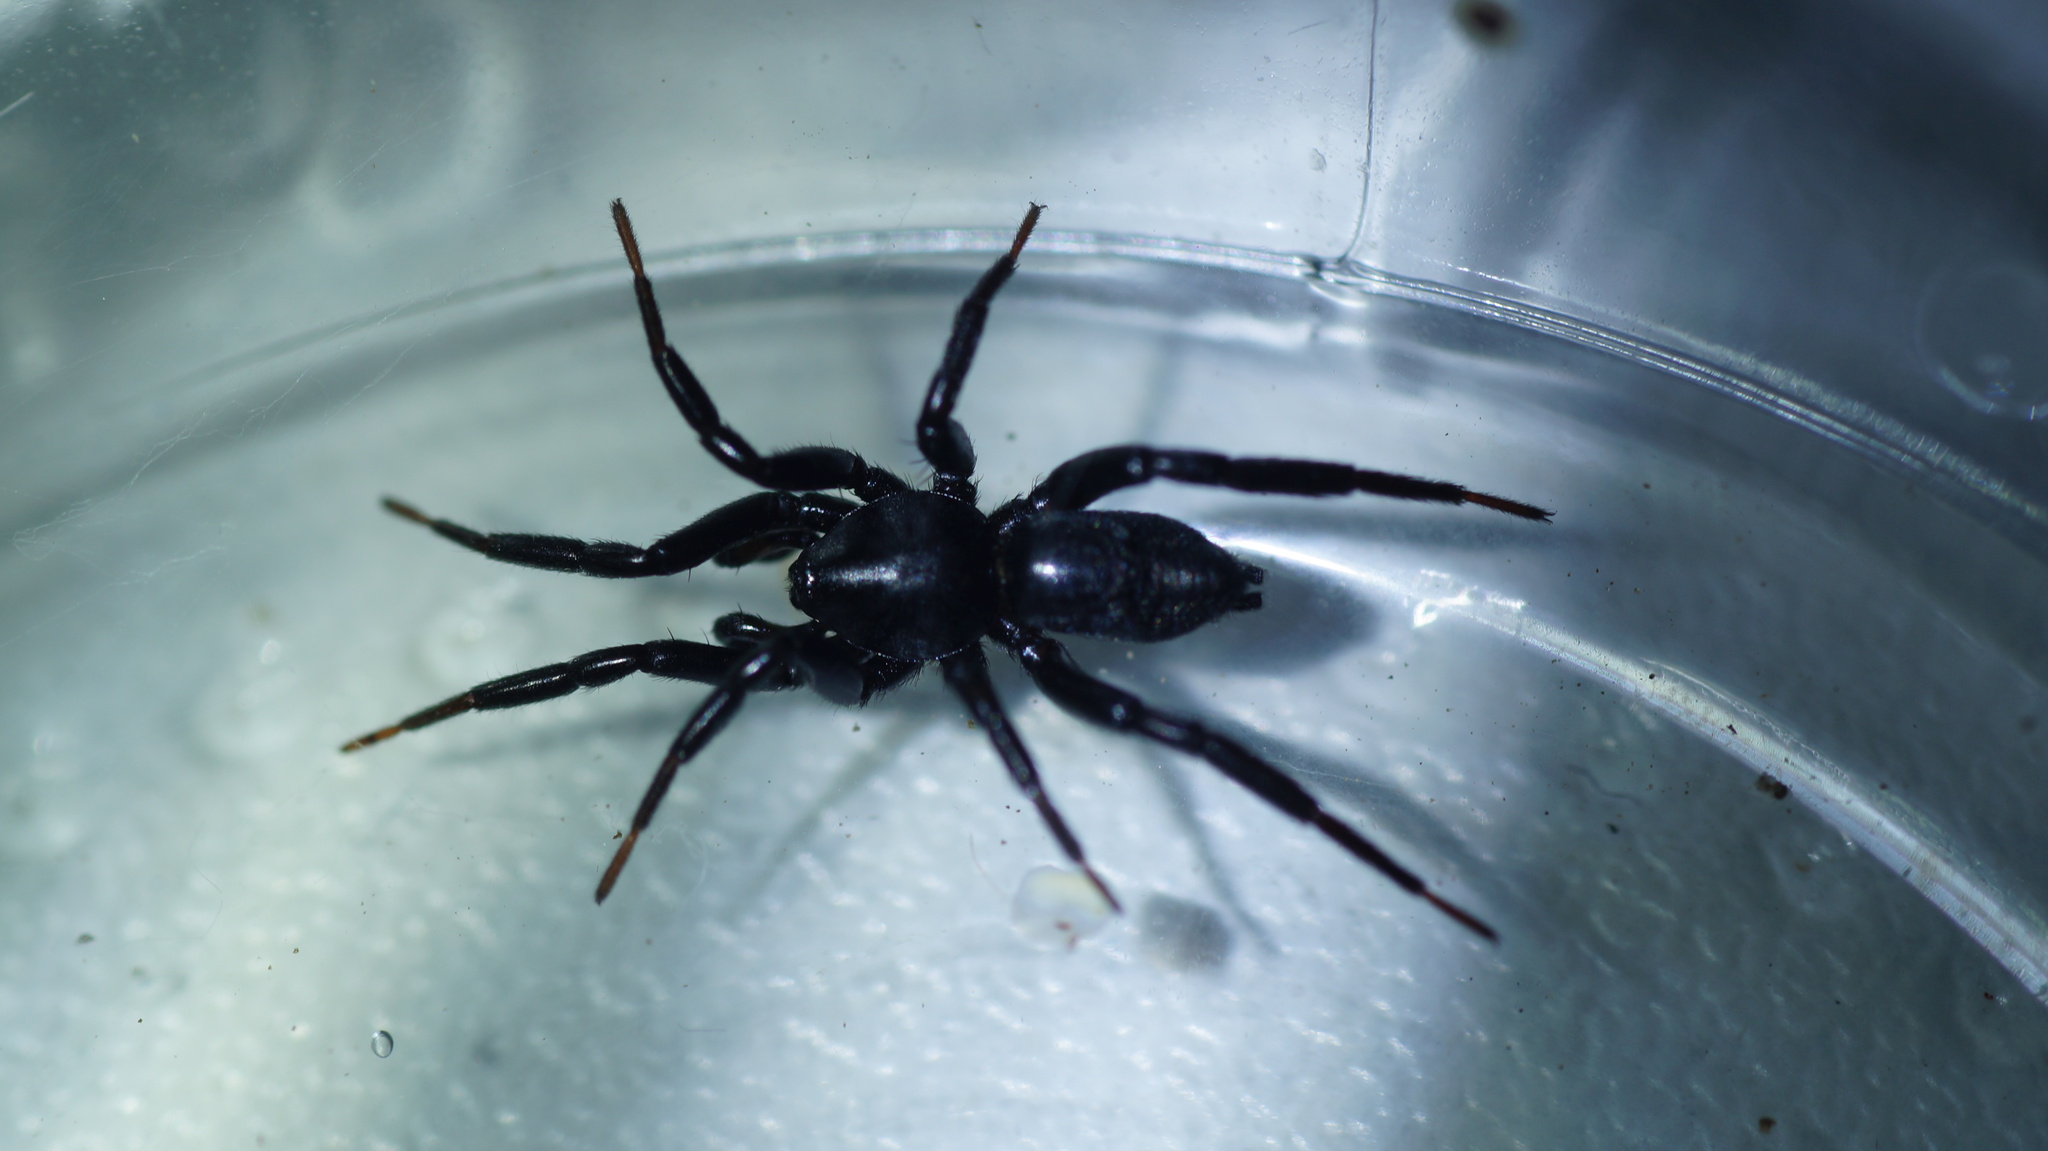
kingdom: Animalia
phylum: Arthropoda
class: Arachnida
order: Araneae
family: Gnaphosidae
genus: Drassyllus
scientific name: Drassyllus praeficus
